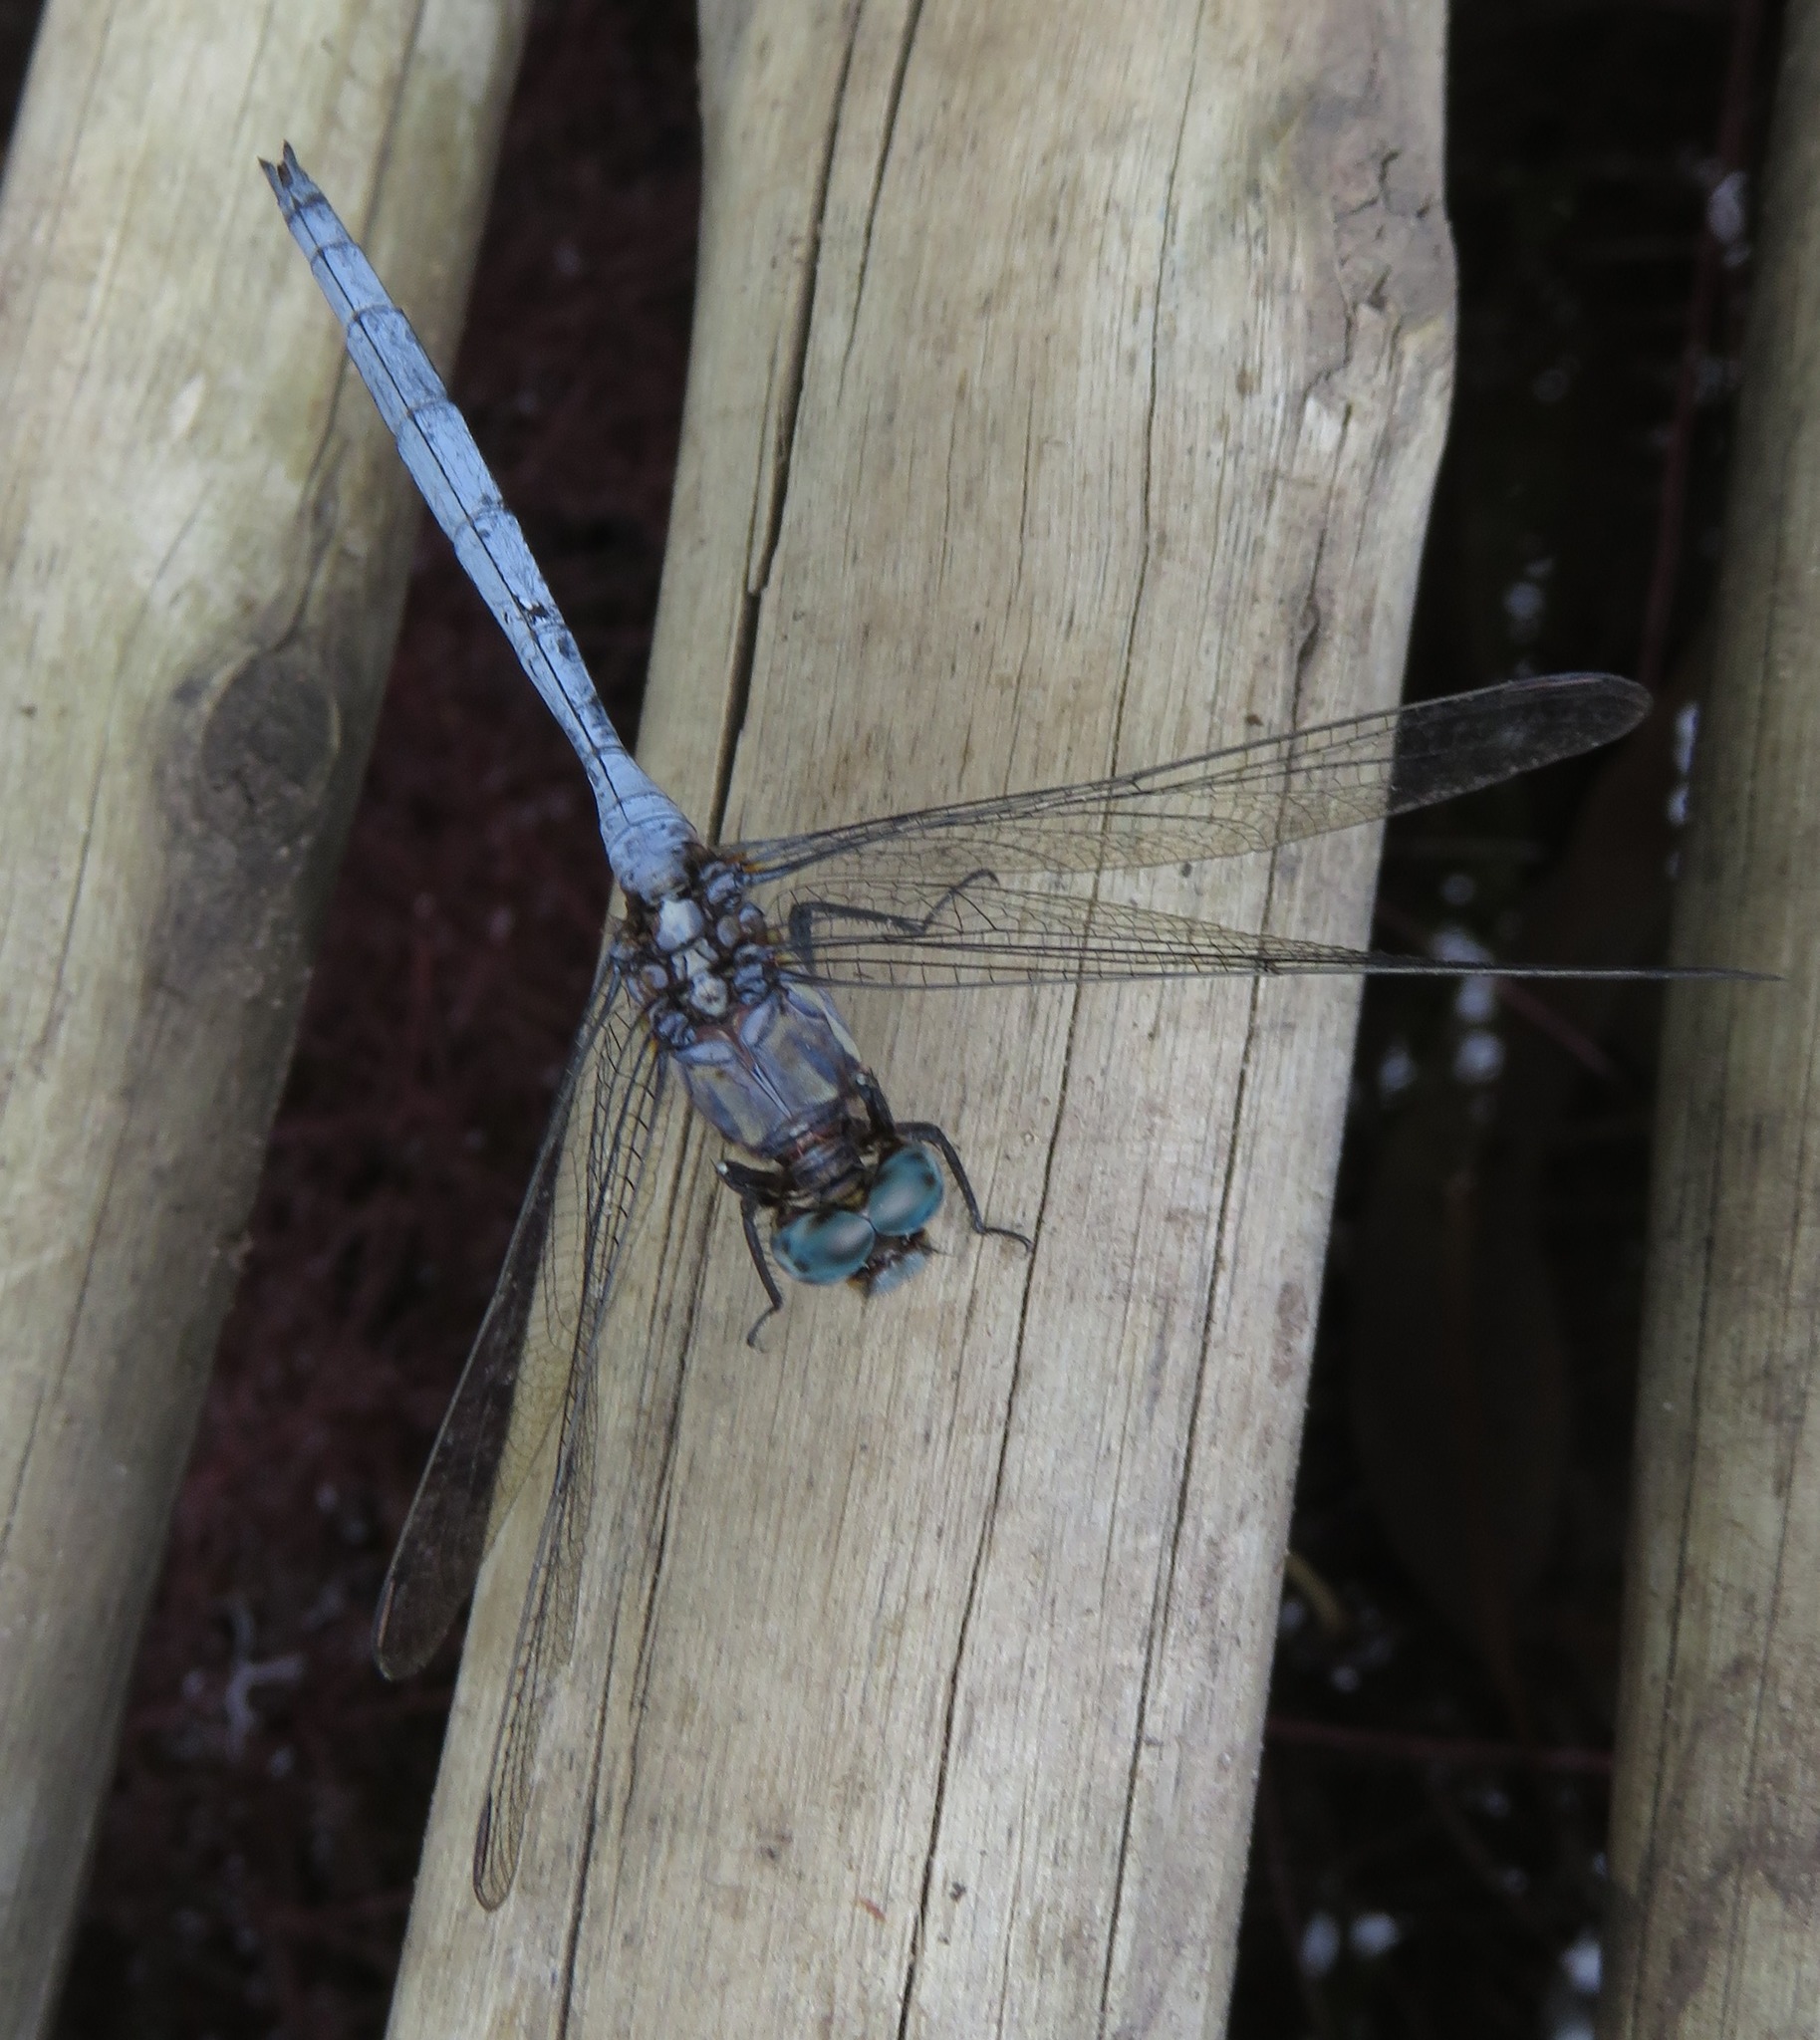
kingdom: Animalia
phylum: Arthropoda
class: Insecta
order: Odonata
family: Libellulidae
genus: Orthetrum
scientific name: Orthetrum julia
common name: Julia skimmer
